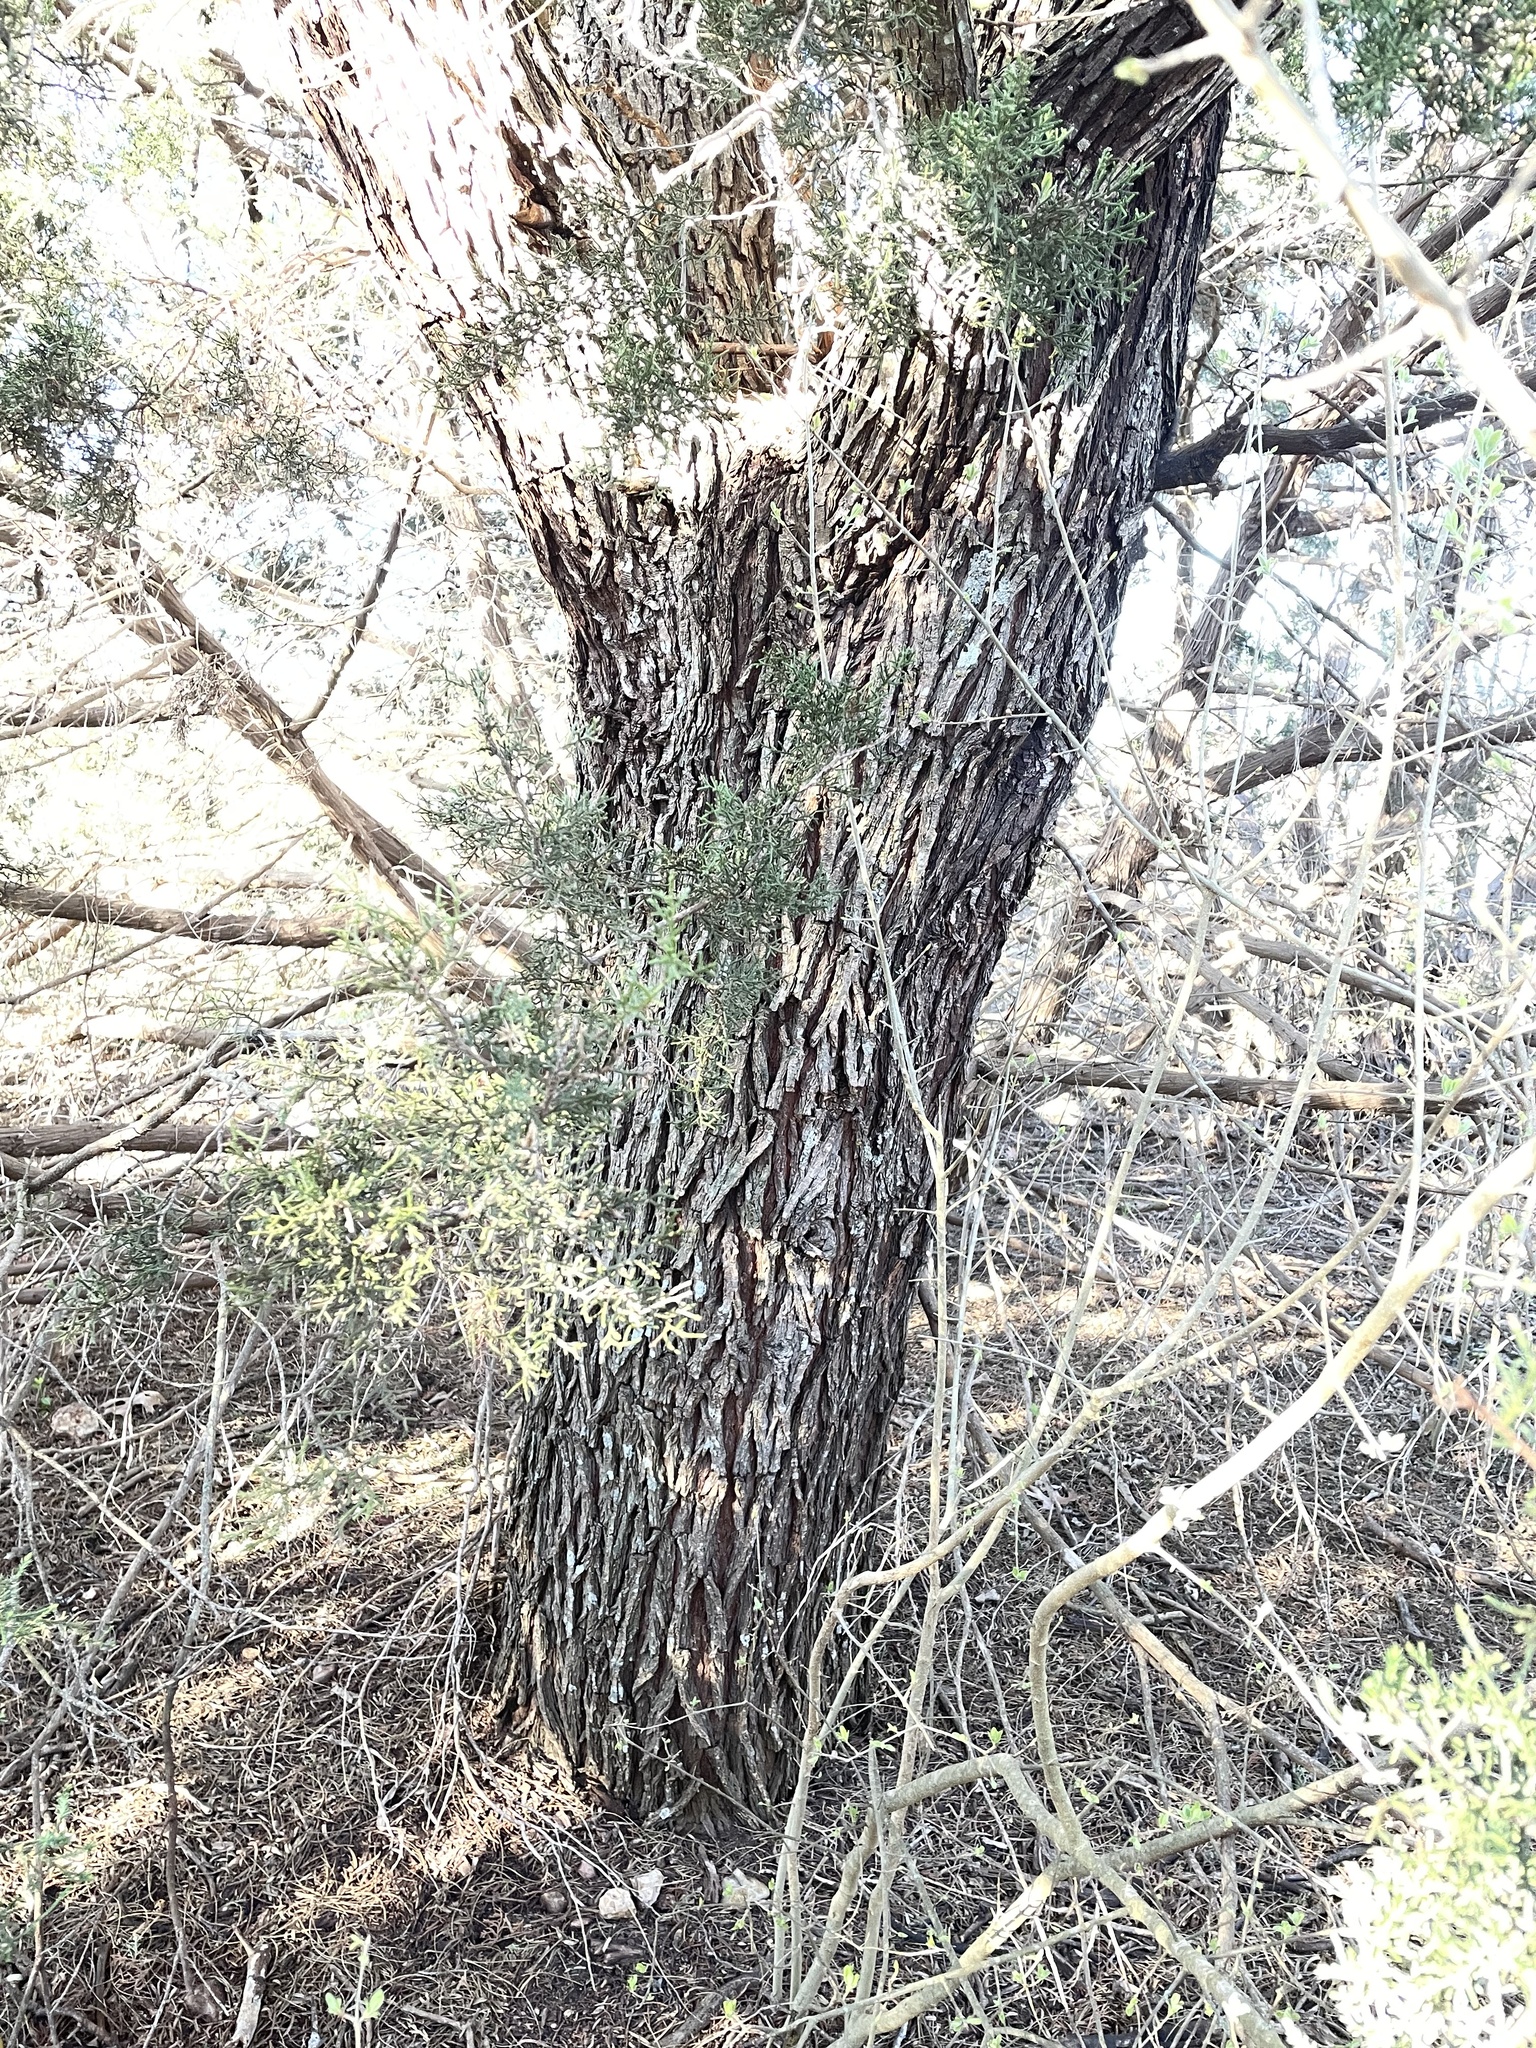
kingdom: Plantae
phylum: Tracheophyta
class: Magnoliopsida
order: Fabales
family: Fabaceae
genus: Prosopis
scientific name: Prosopis glandulosa
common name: Honey mesquite
